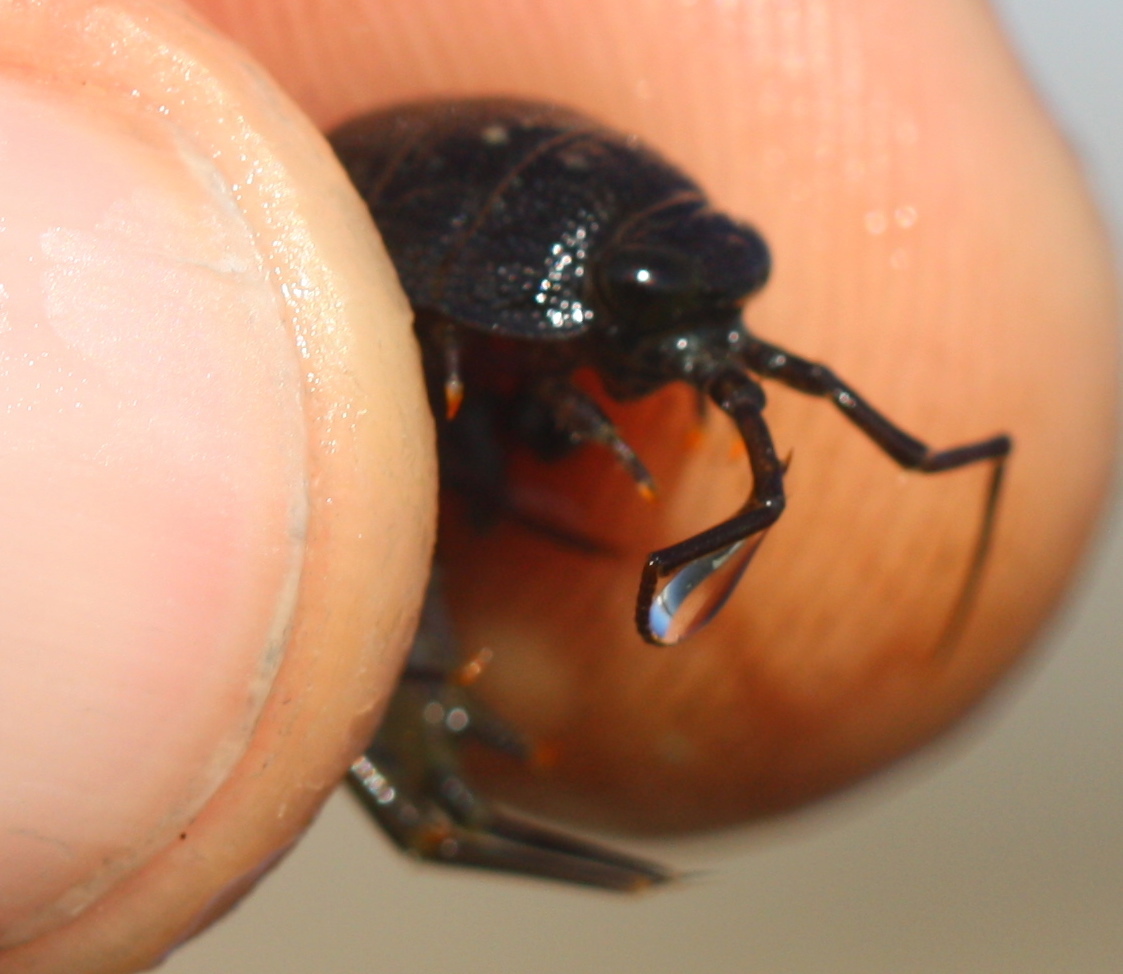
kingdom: Animalia
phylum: Arthropoda
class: Malacostraca
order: Isopoda
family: Ligiidae
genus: Ligia
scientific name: Ligia occidentalis
